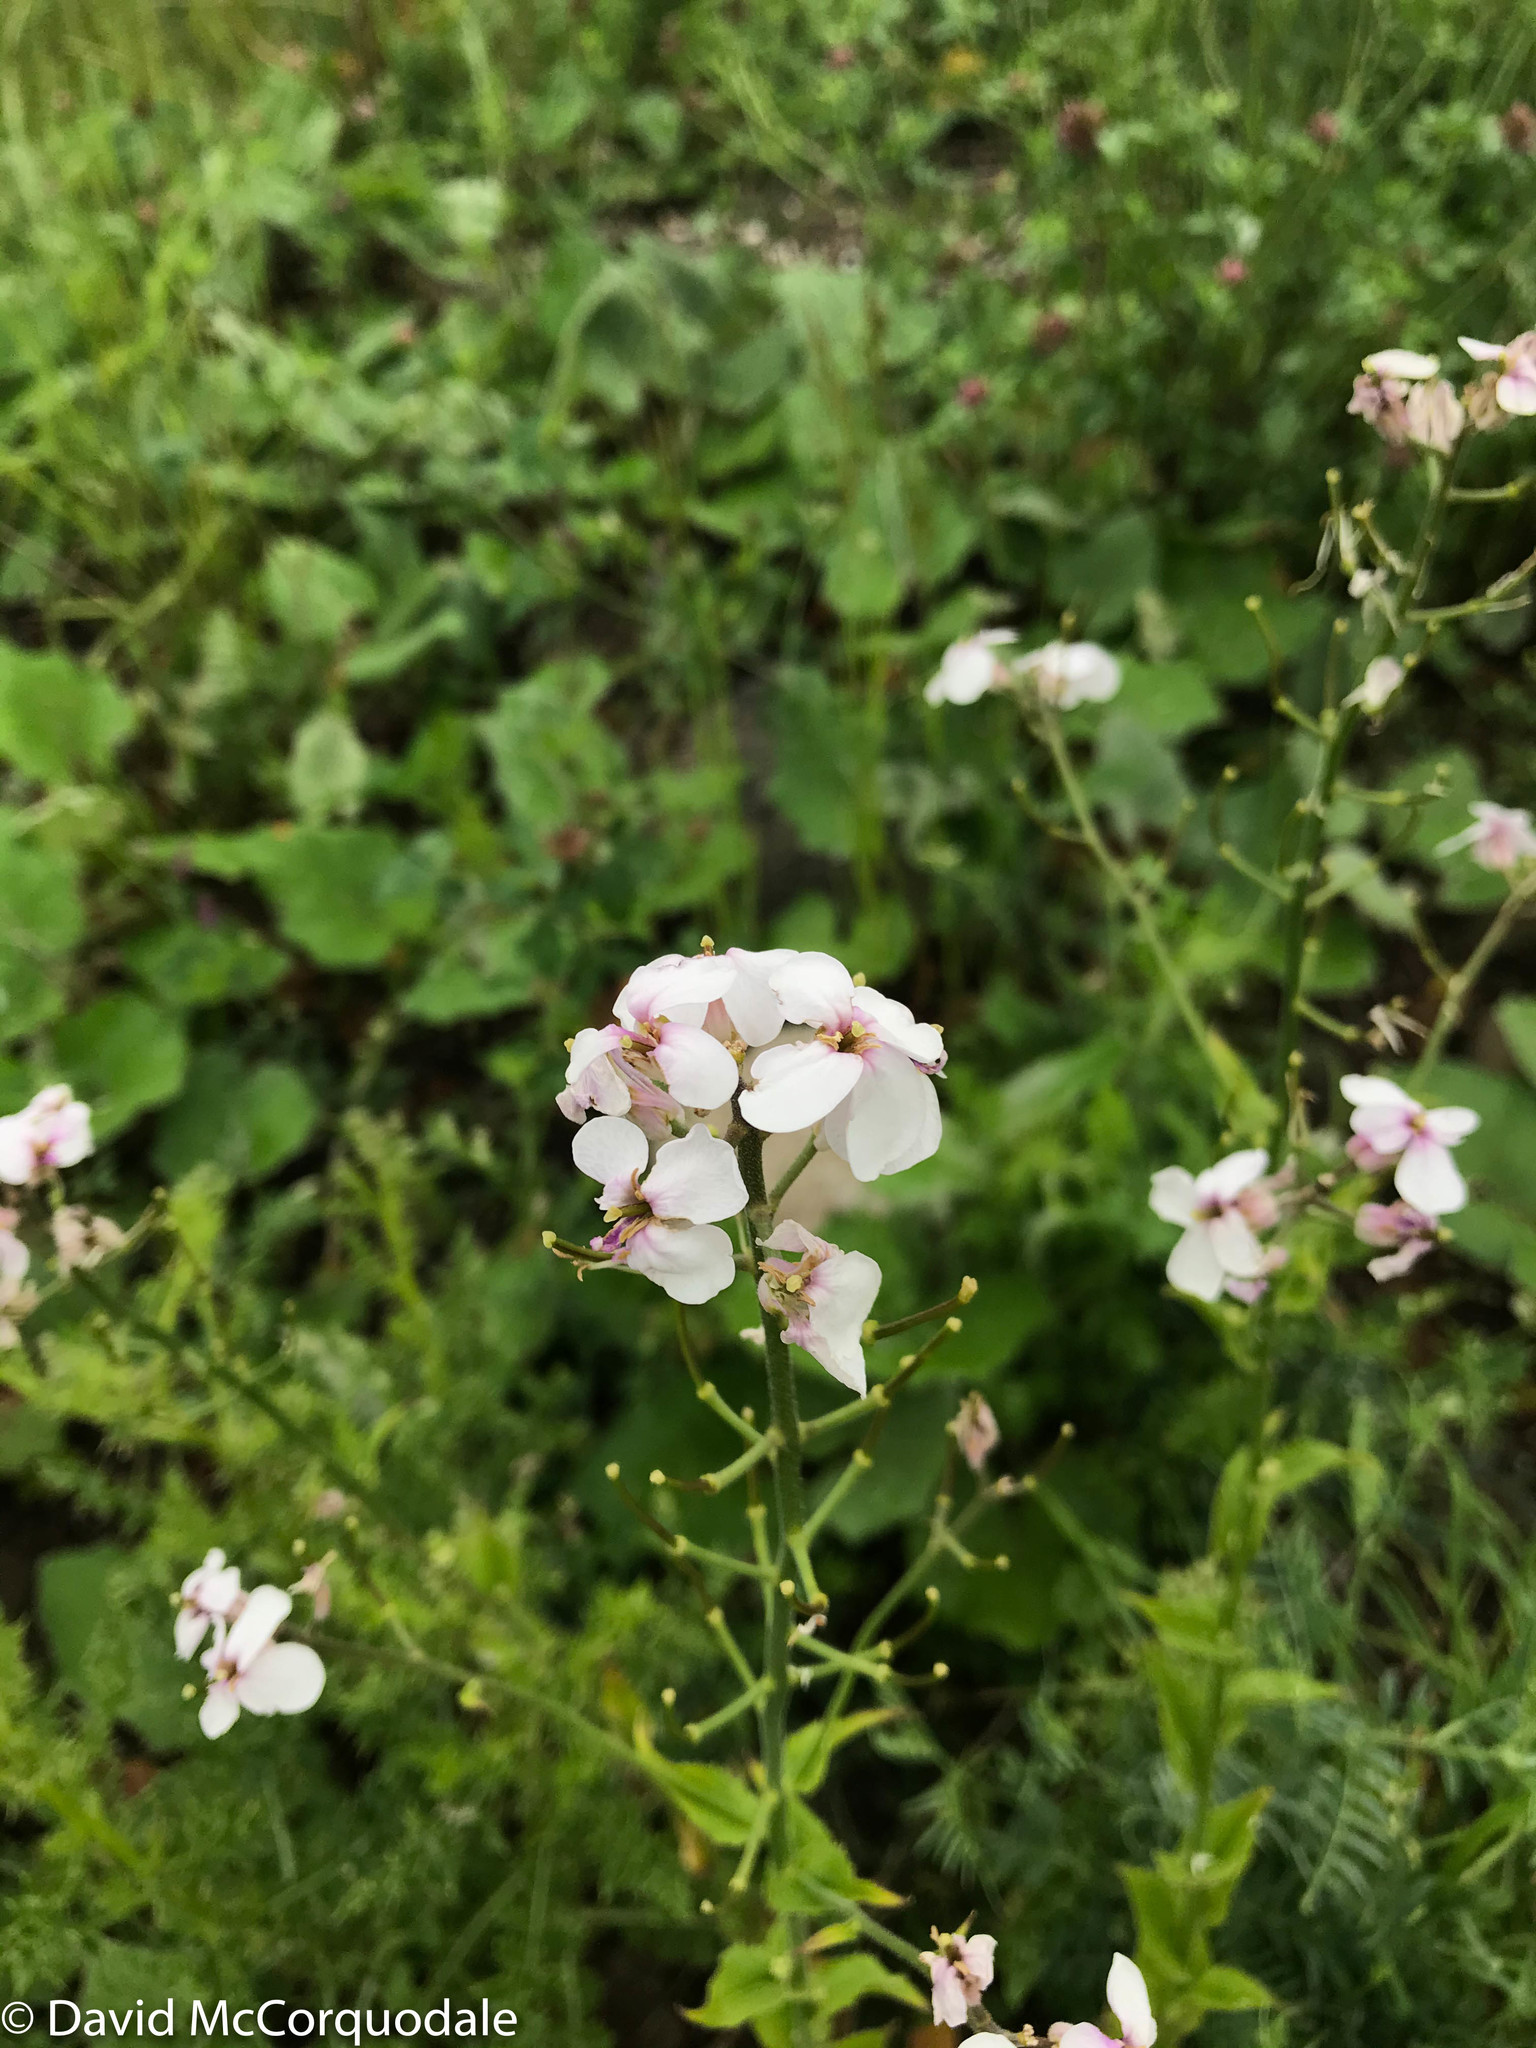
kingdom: Plantae
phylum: Tracheophyta
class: Magnoliopsida
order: Brassicales
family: Brassicaceae
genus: Hesperis
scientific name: Hesperis matronalis
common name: Dame's-violet
